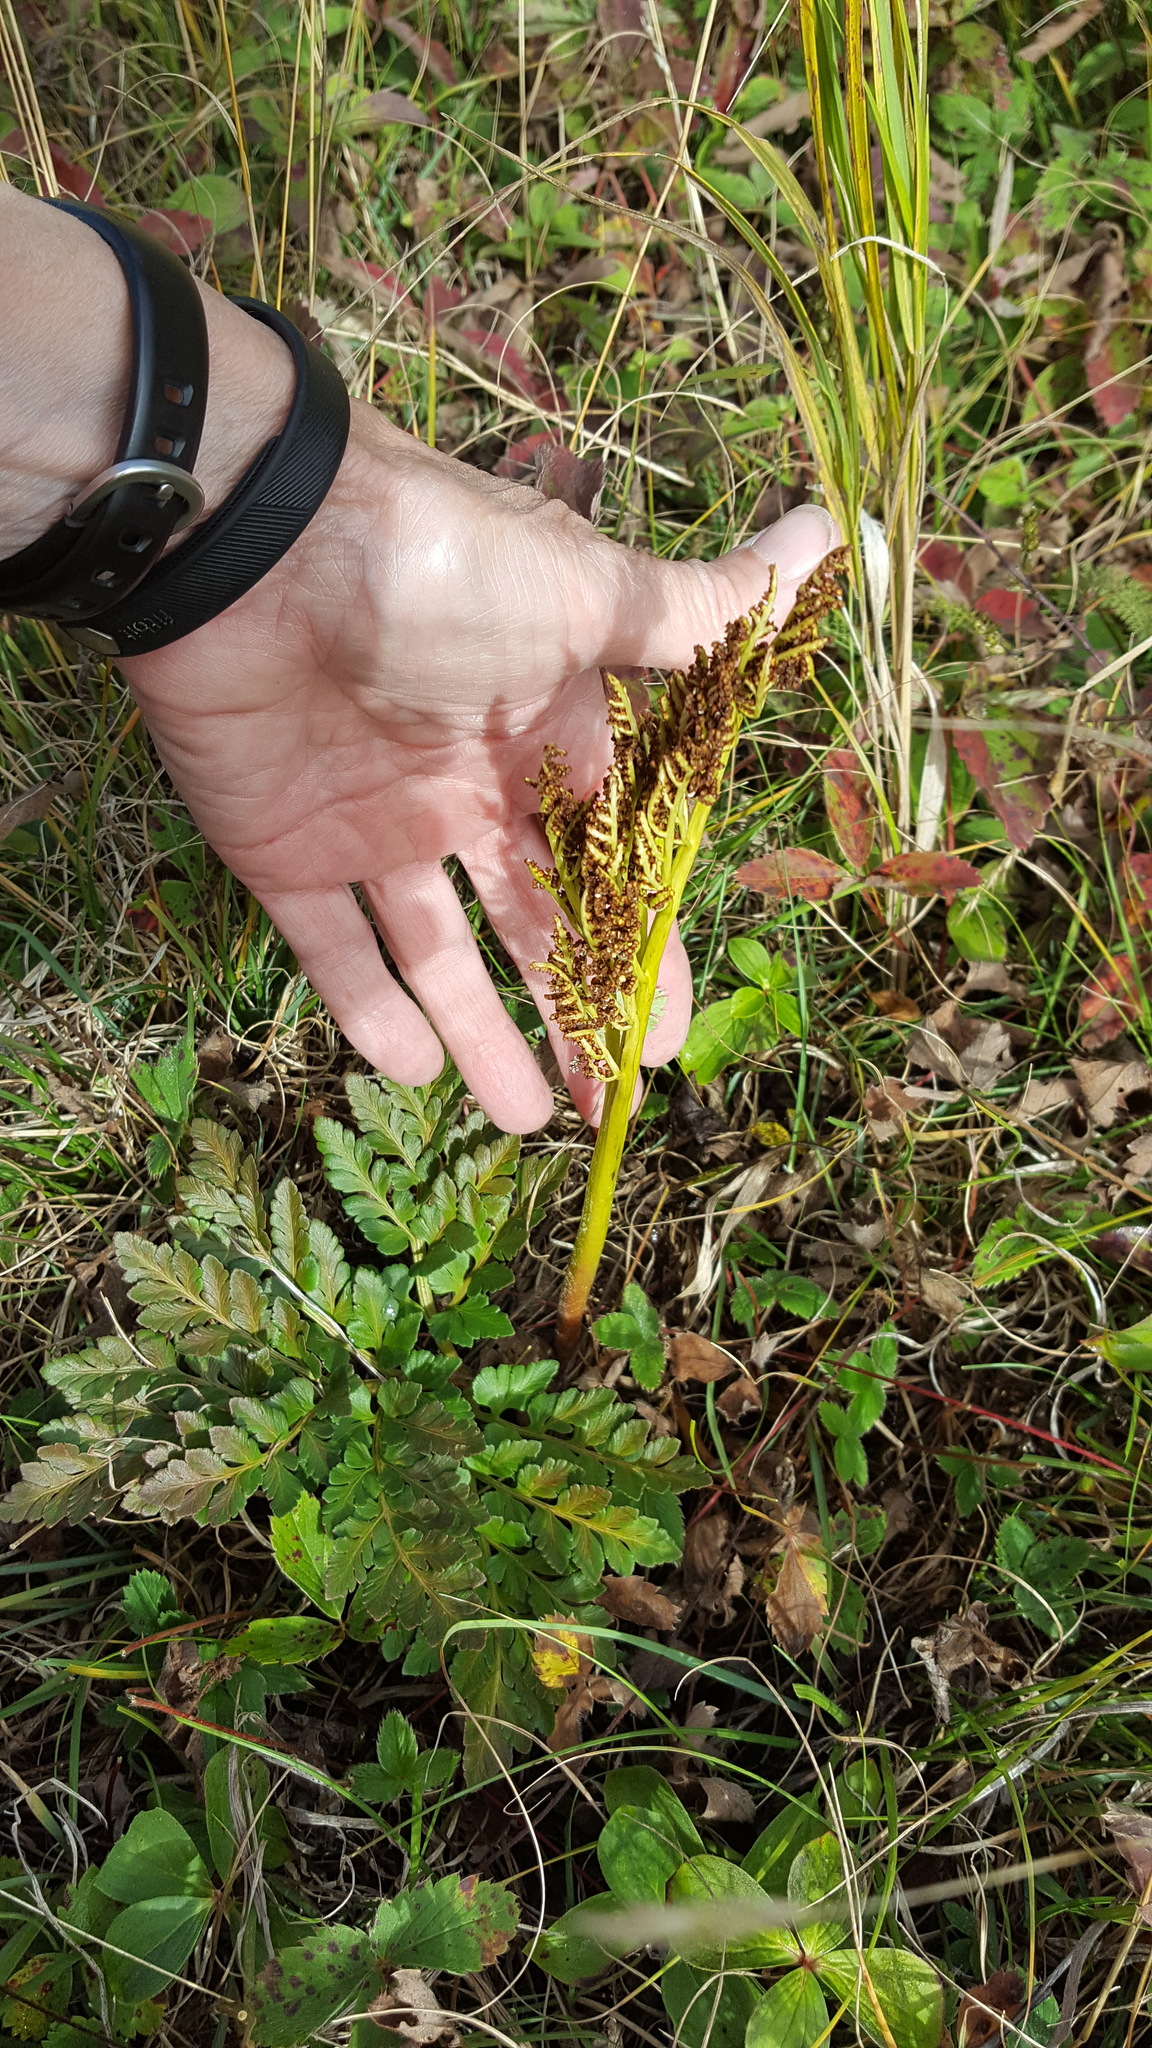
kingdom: Plantae
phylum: Tracheophyta
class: Polypodiopsida
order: Ophioglossales
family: Ophioglossaceae
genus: Sceptridium
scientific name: Sceptridium multifidum
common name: Leathery grape fern
